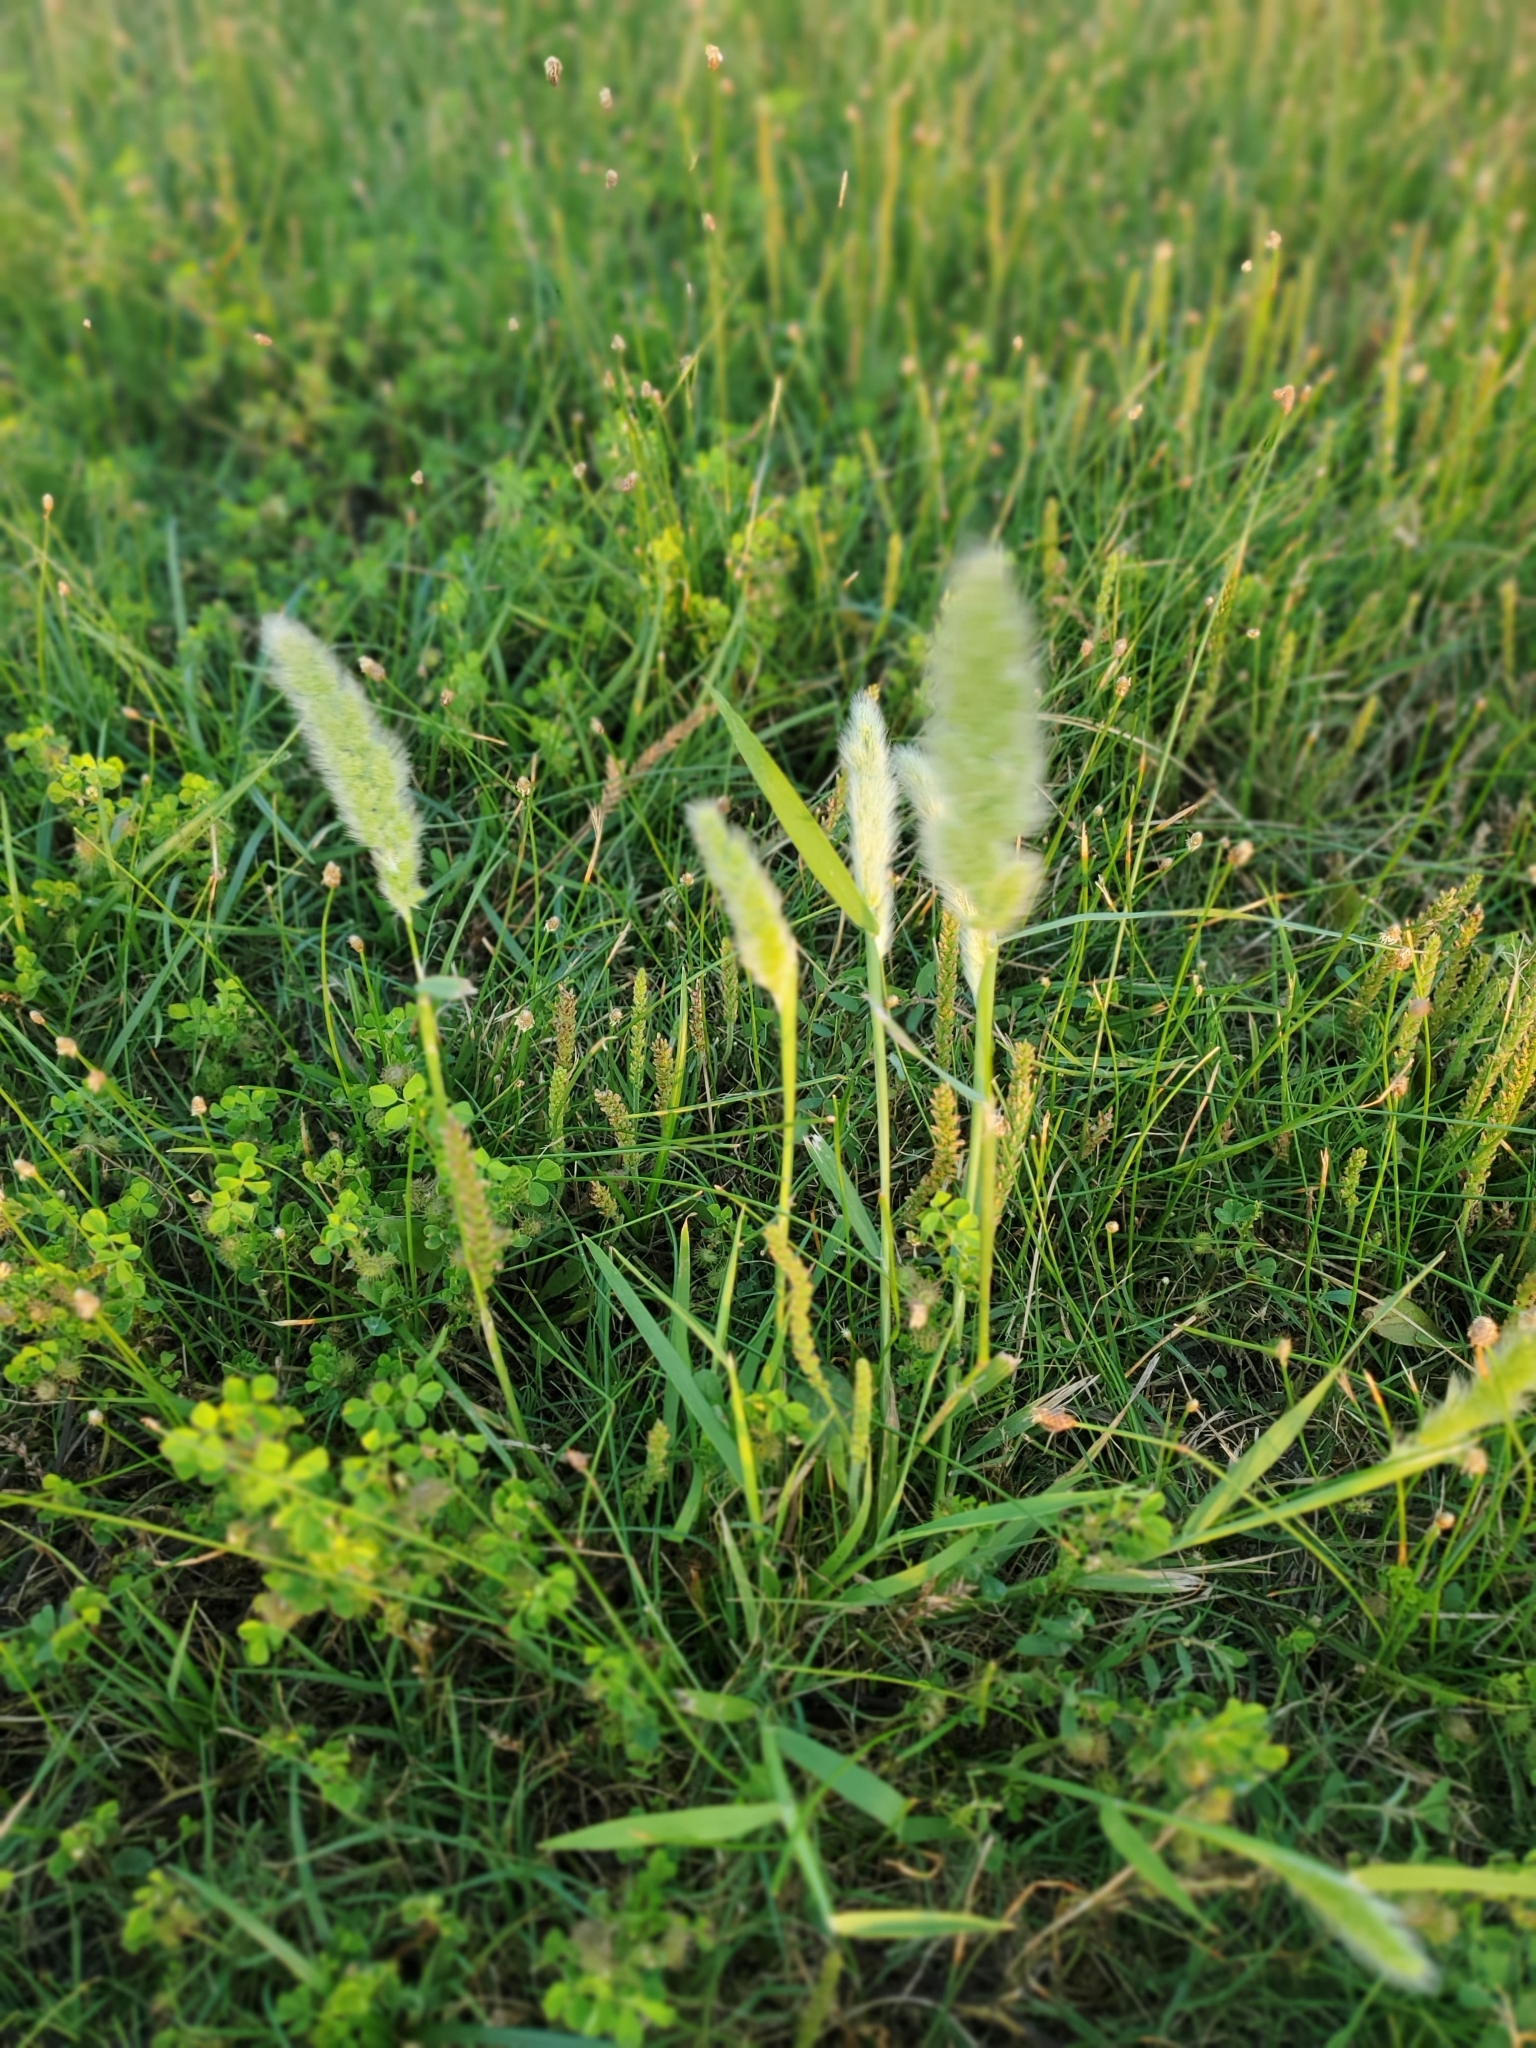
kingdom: Plantae
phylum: Tracheophyta
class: Liliopsida
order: Poales
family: Poaceae
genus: Polypogon
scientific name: Polypogon monspeliensis
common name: Annual rabbitsfoot grass
